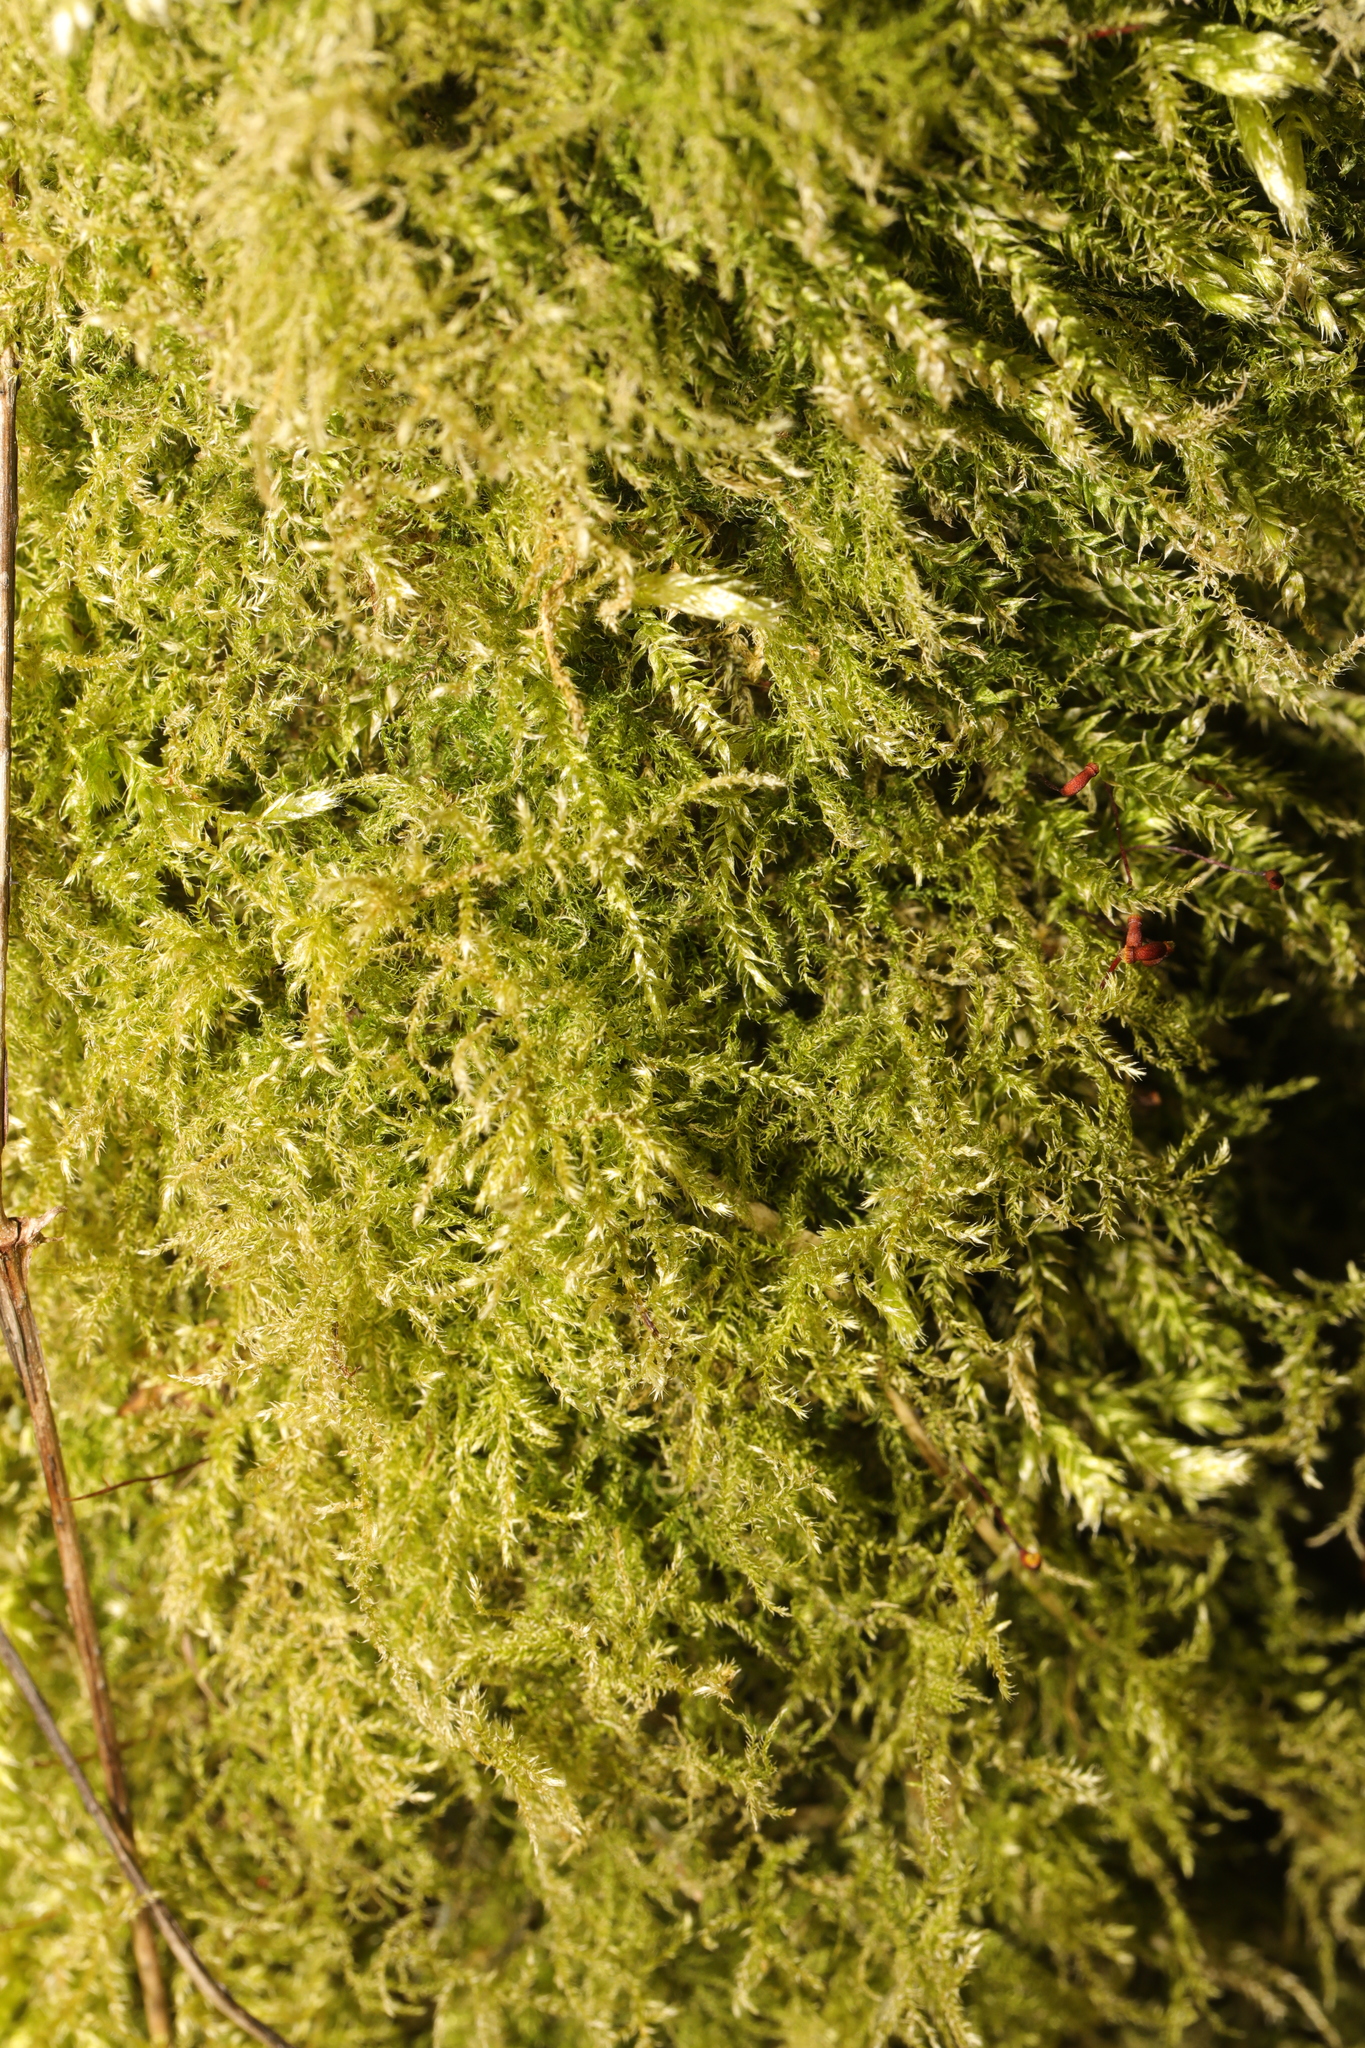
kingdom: Plantae
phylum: Bryophyta
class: Bryopsida
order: Hypnales
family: Brachytheciaceae
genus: Kindbergia
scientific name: Kindbergia praelonga
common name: Slender beaked moss
